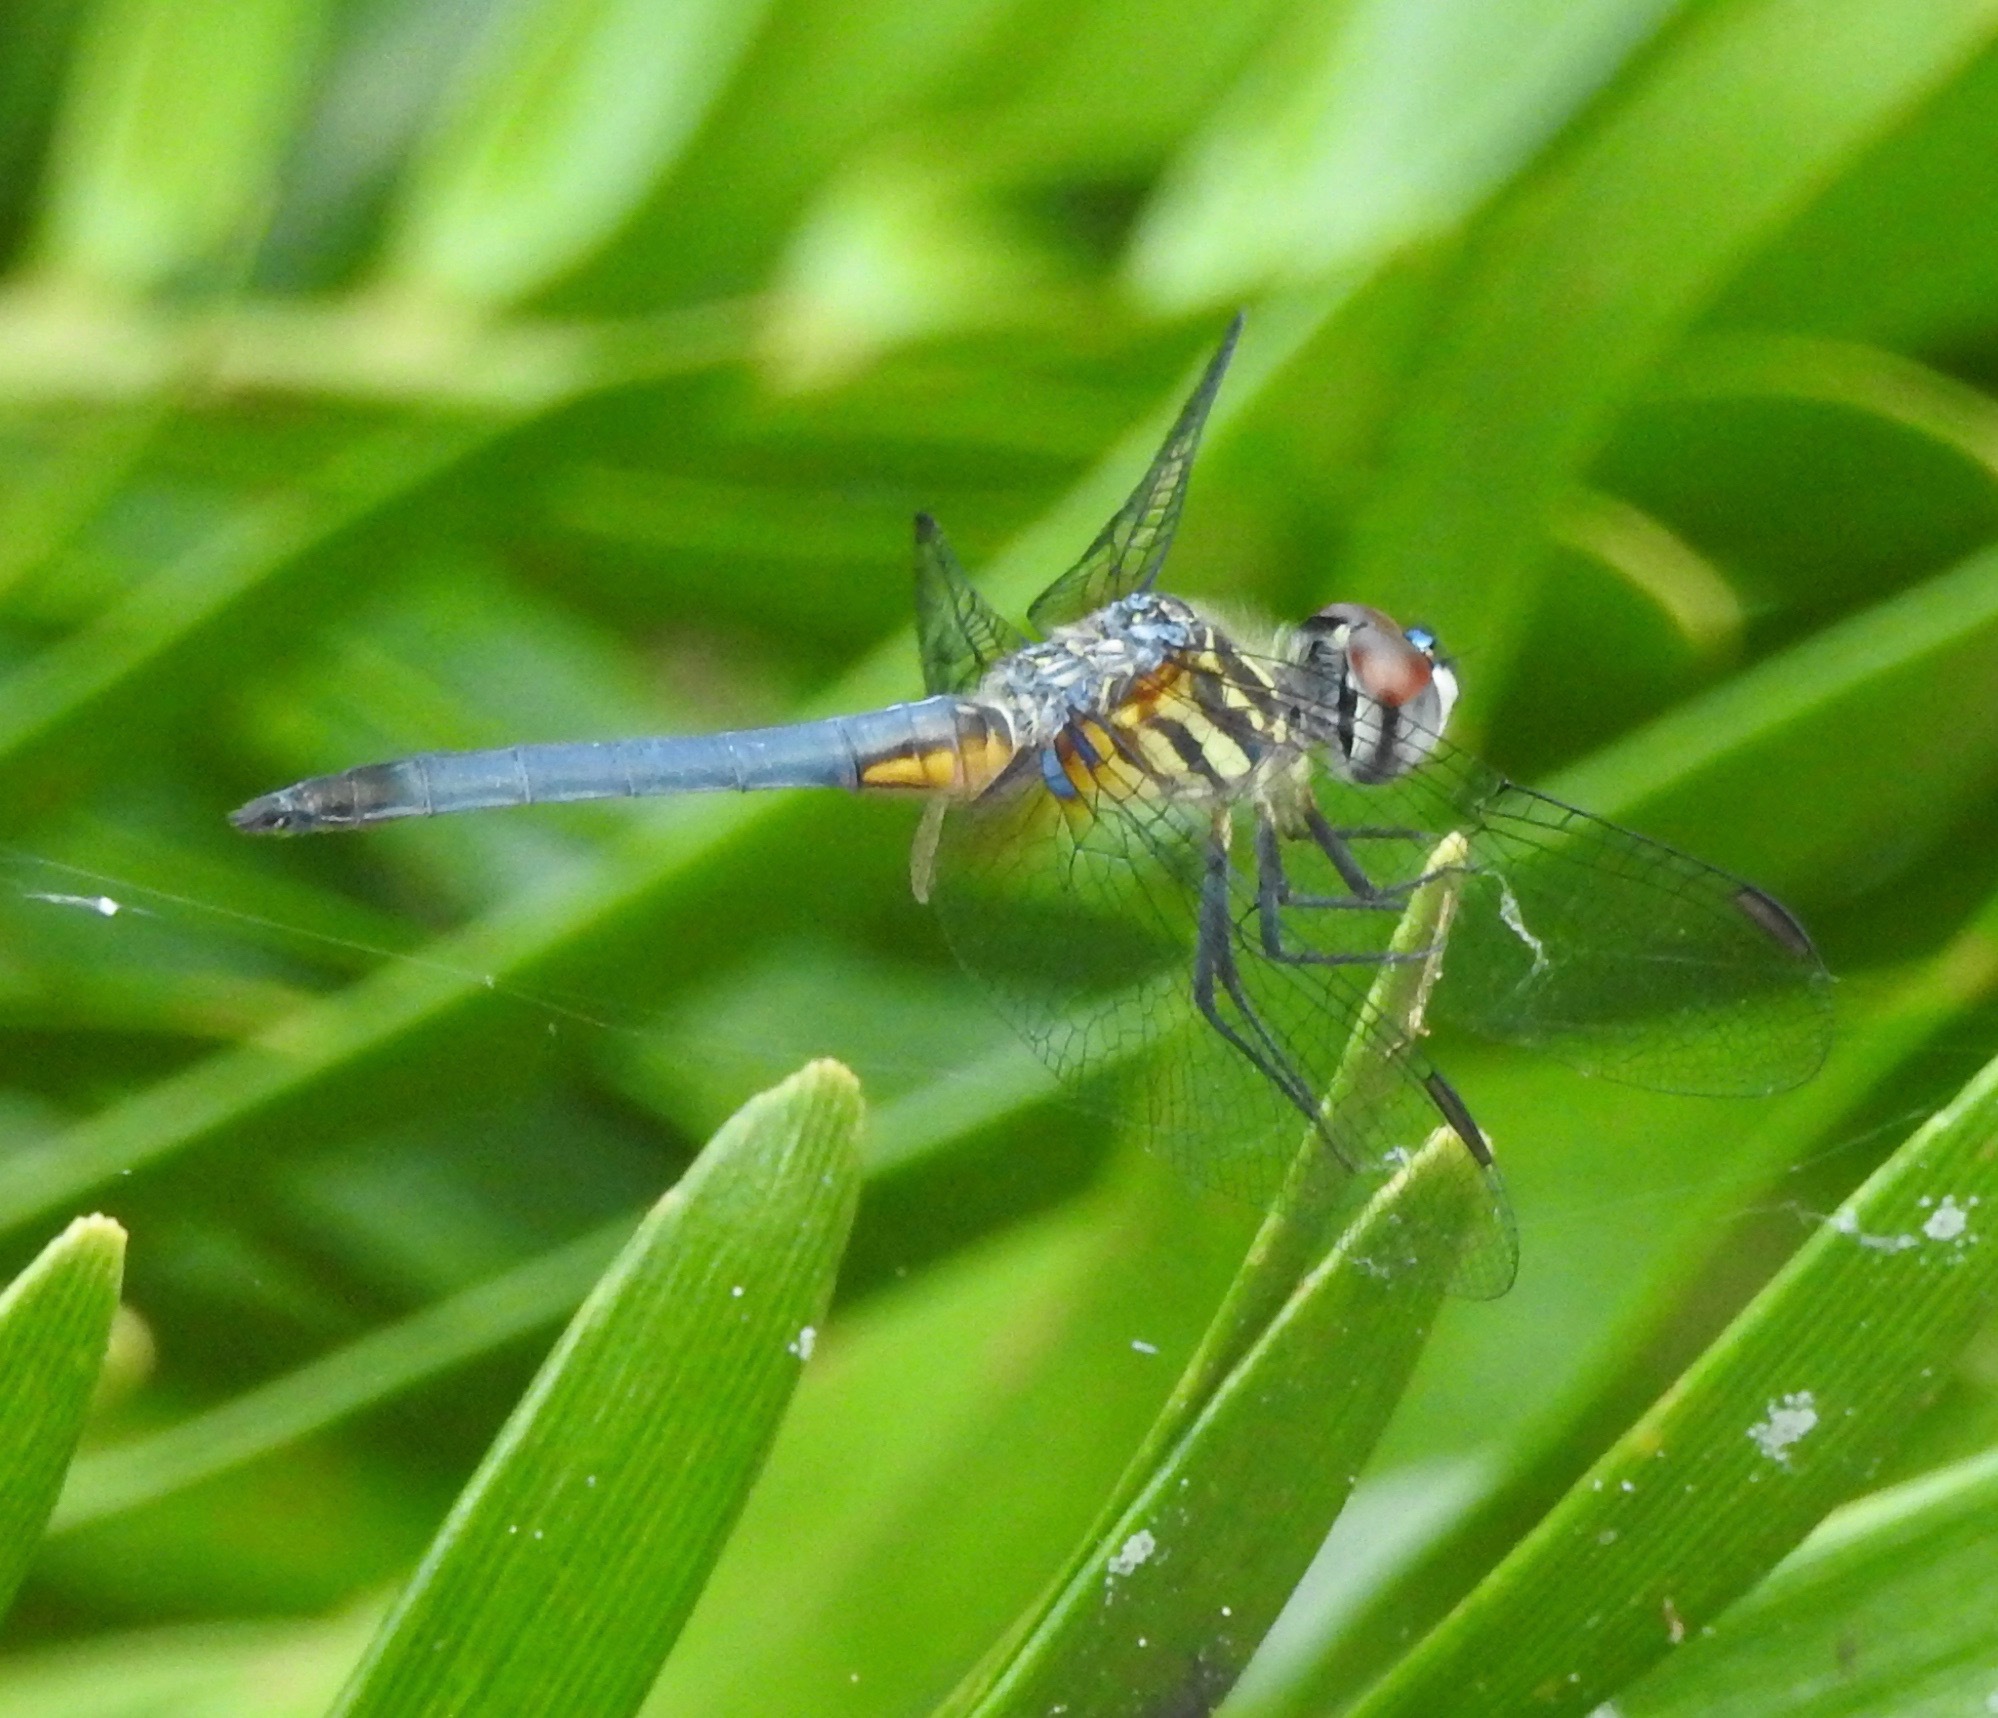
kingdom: Animalia
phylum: Arthropoda
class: Insecta
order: Odonata
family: Libellulidae
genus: Pachydiplax
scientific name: Pachydiplax longipennis
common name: Blue dasher
